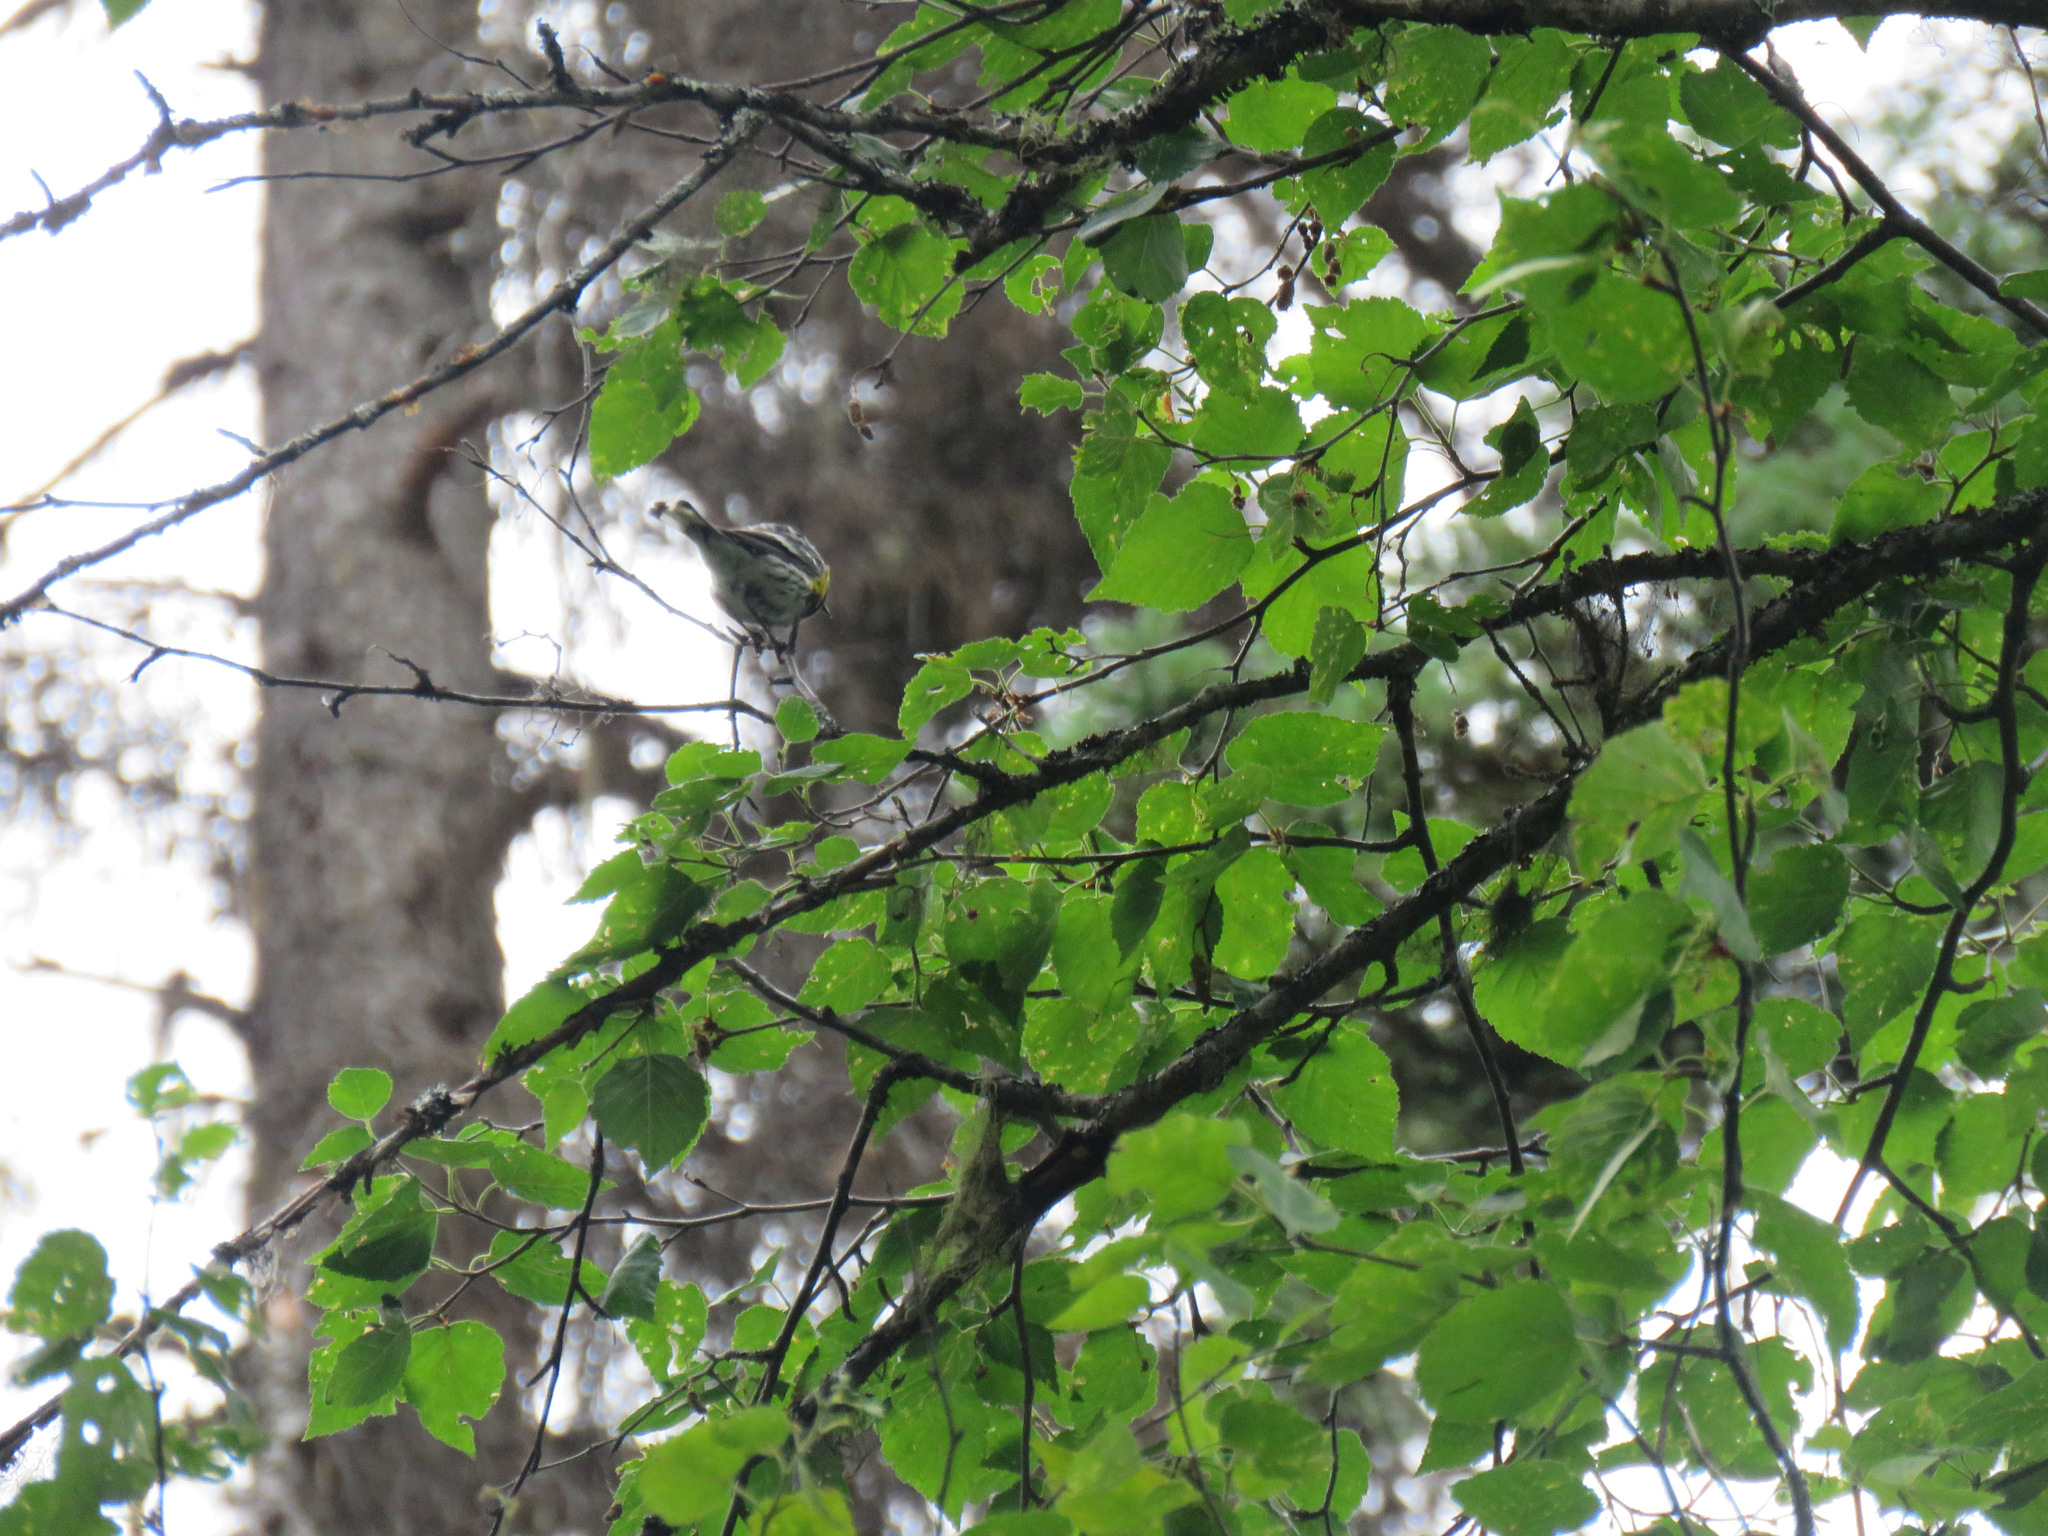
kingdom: Animalia
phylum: Chordata
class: Aves
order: Passeriformes
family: Parulidae
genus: Setophaga
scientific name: Setophaga coronata
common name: Myrtle warbler
